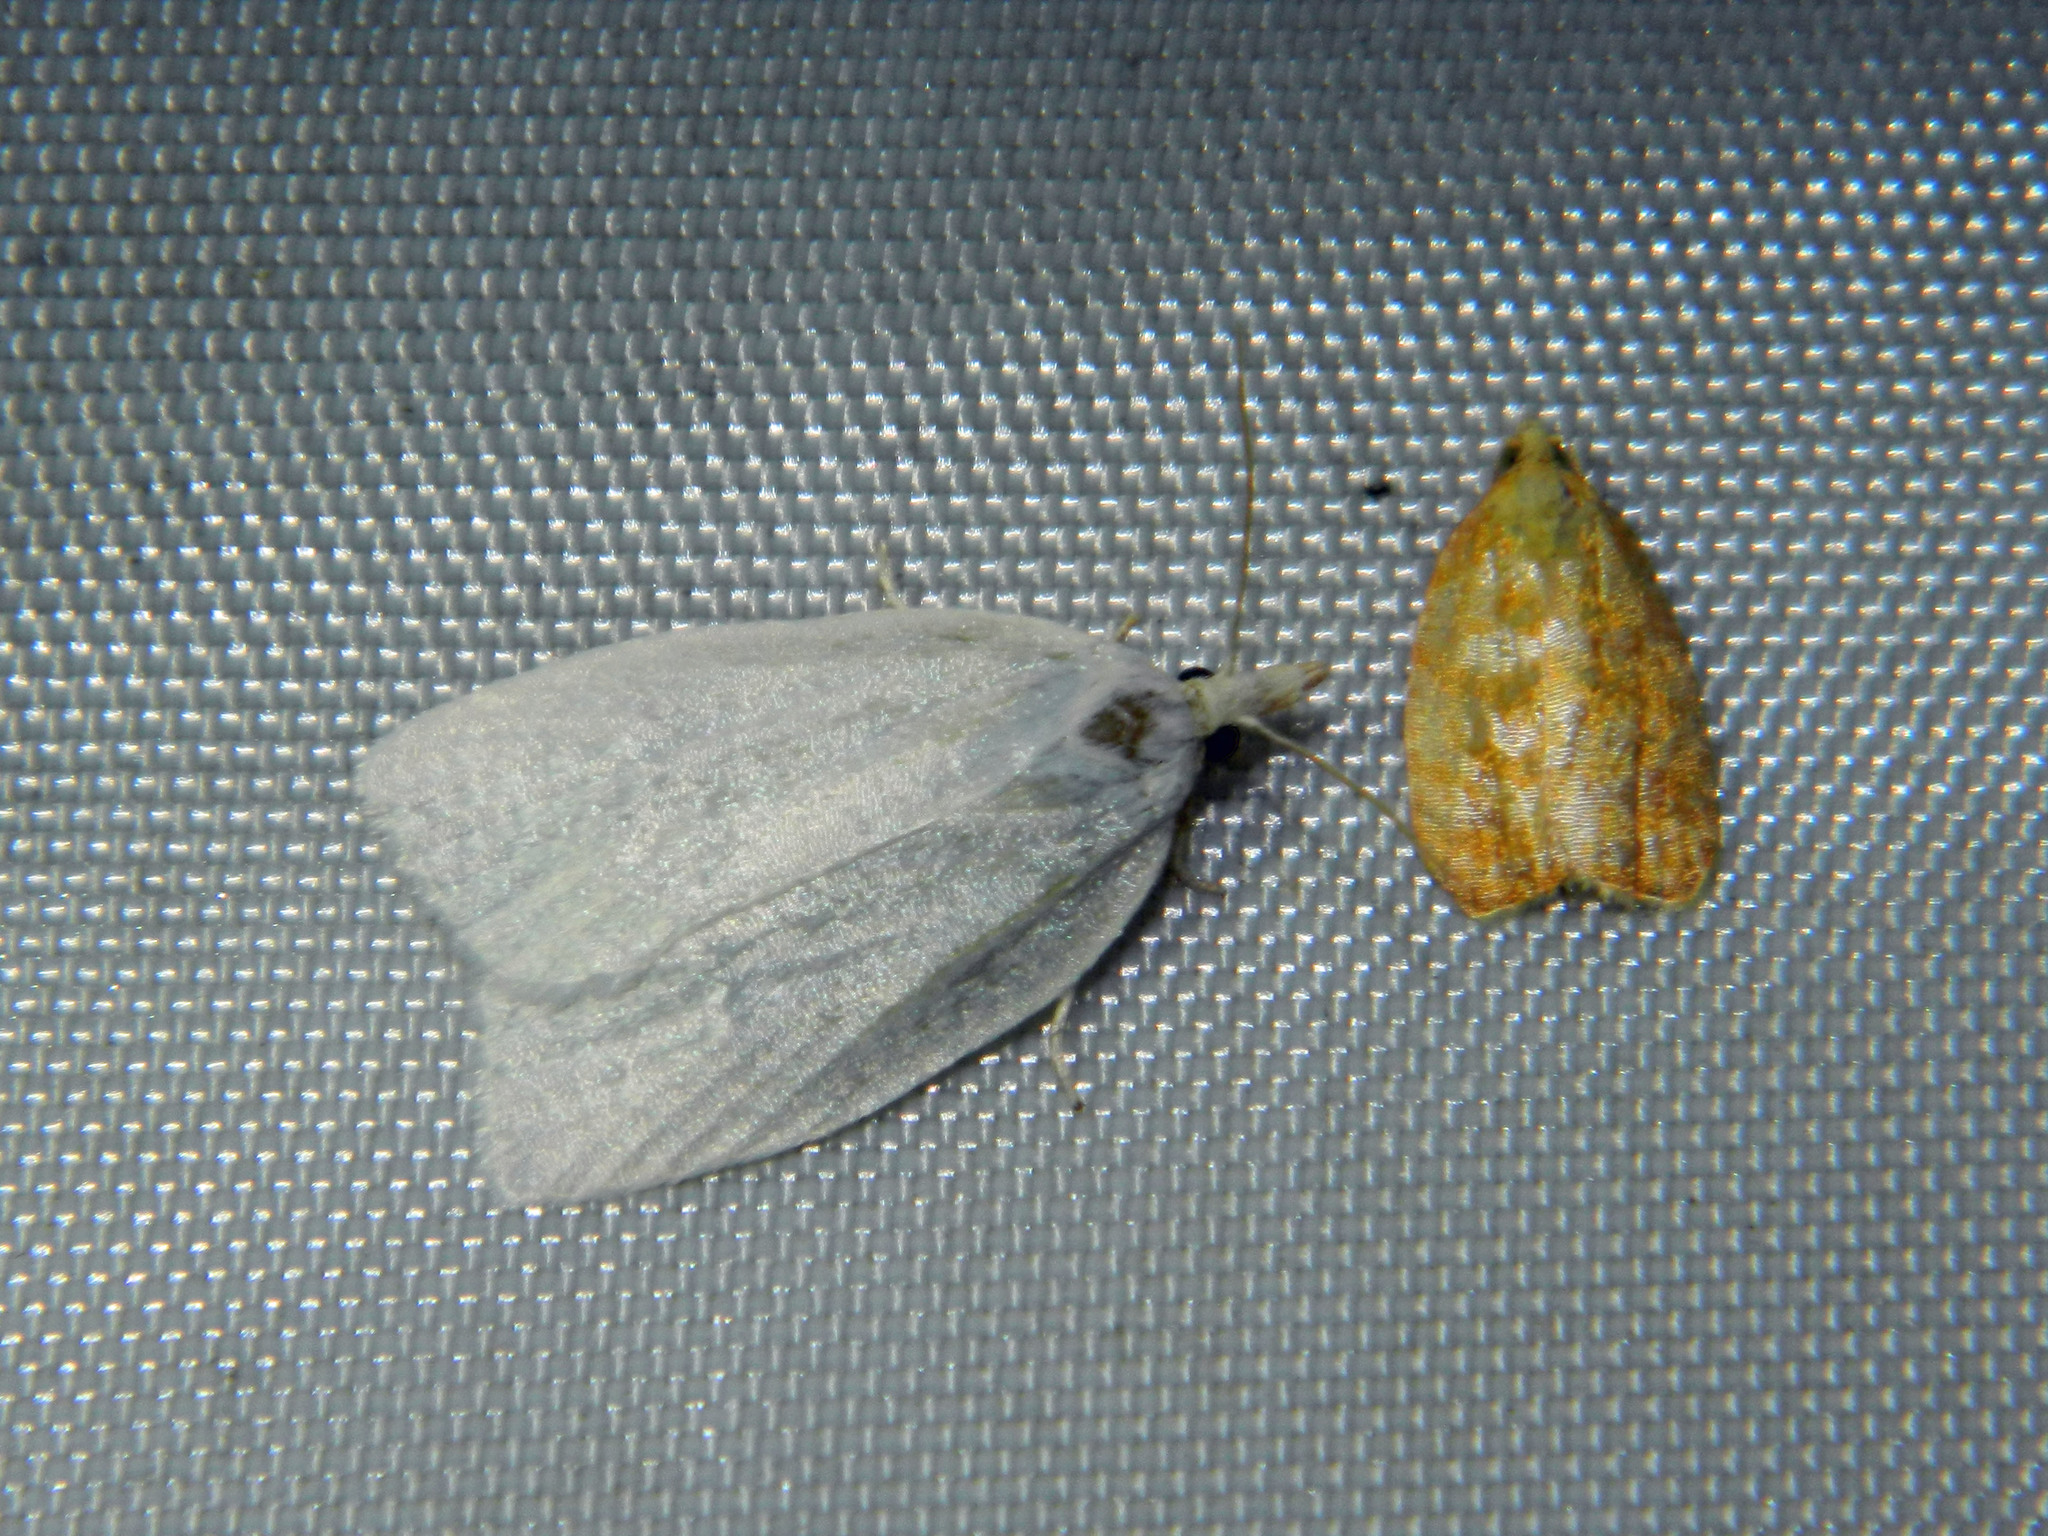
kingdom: Animalia
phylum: Arthropoda
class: Insecta
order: Lepidoptera
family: Tortricidae
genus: Cenopis
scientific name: Cenopis pettitana
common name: Maple-basswood leafroller moth
